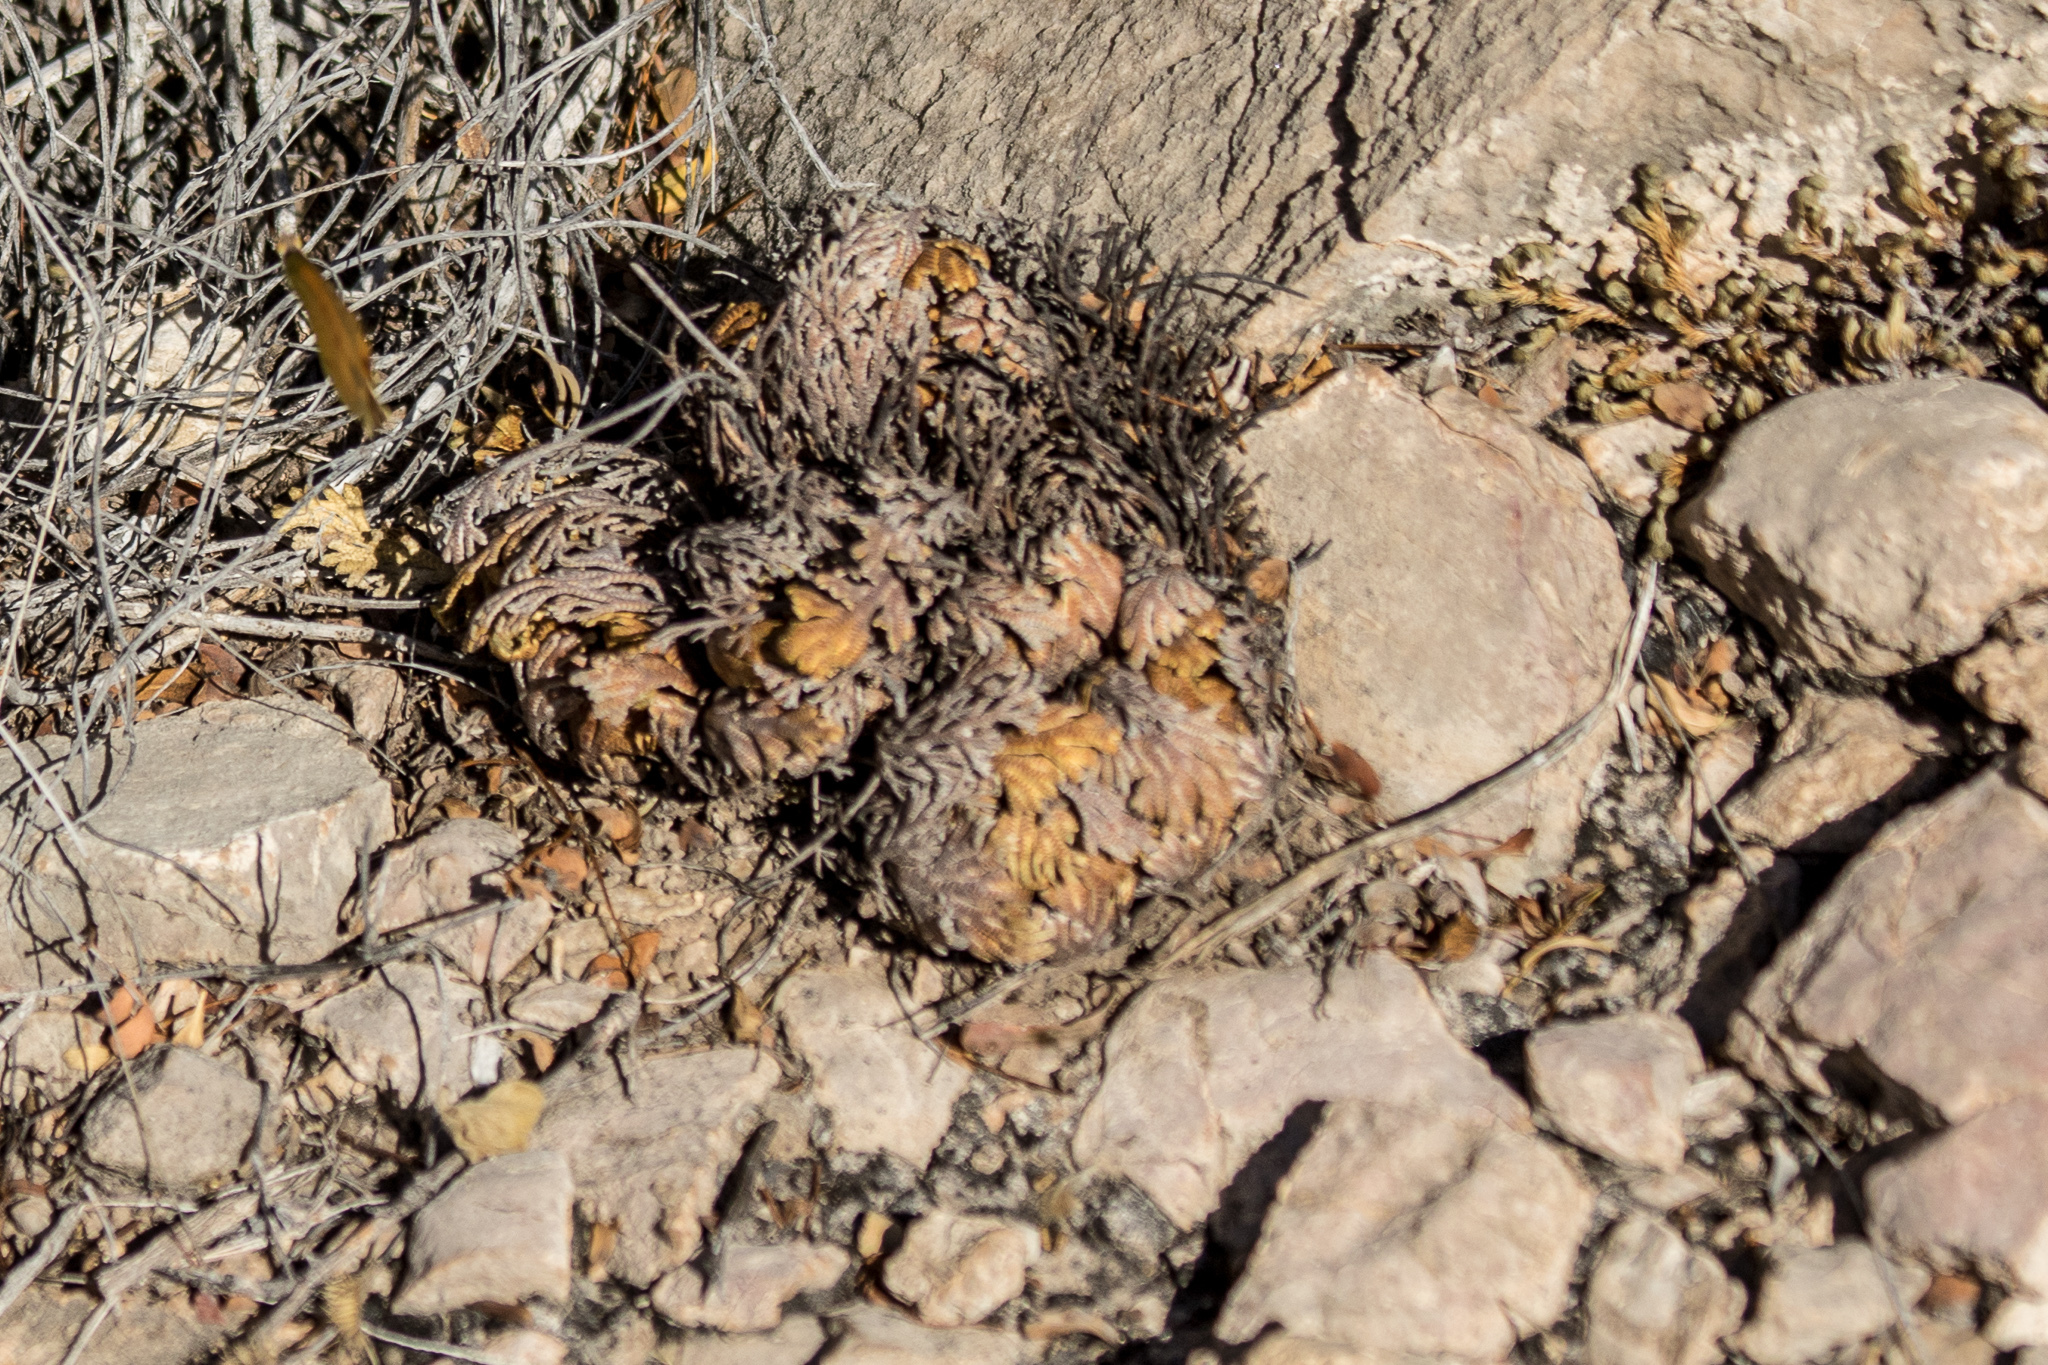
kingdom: Plantae
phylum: Tracheophyta
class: Lycopodiopsida
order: Selaginellales
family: Selaginellaceae
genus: Selaginella
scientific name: Selaginella lepidophylla
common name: Rose-of-jericho
